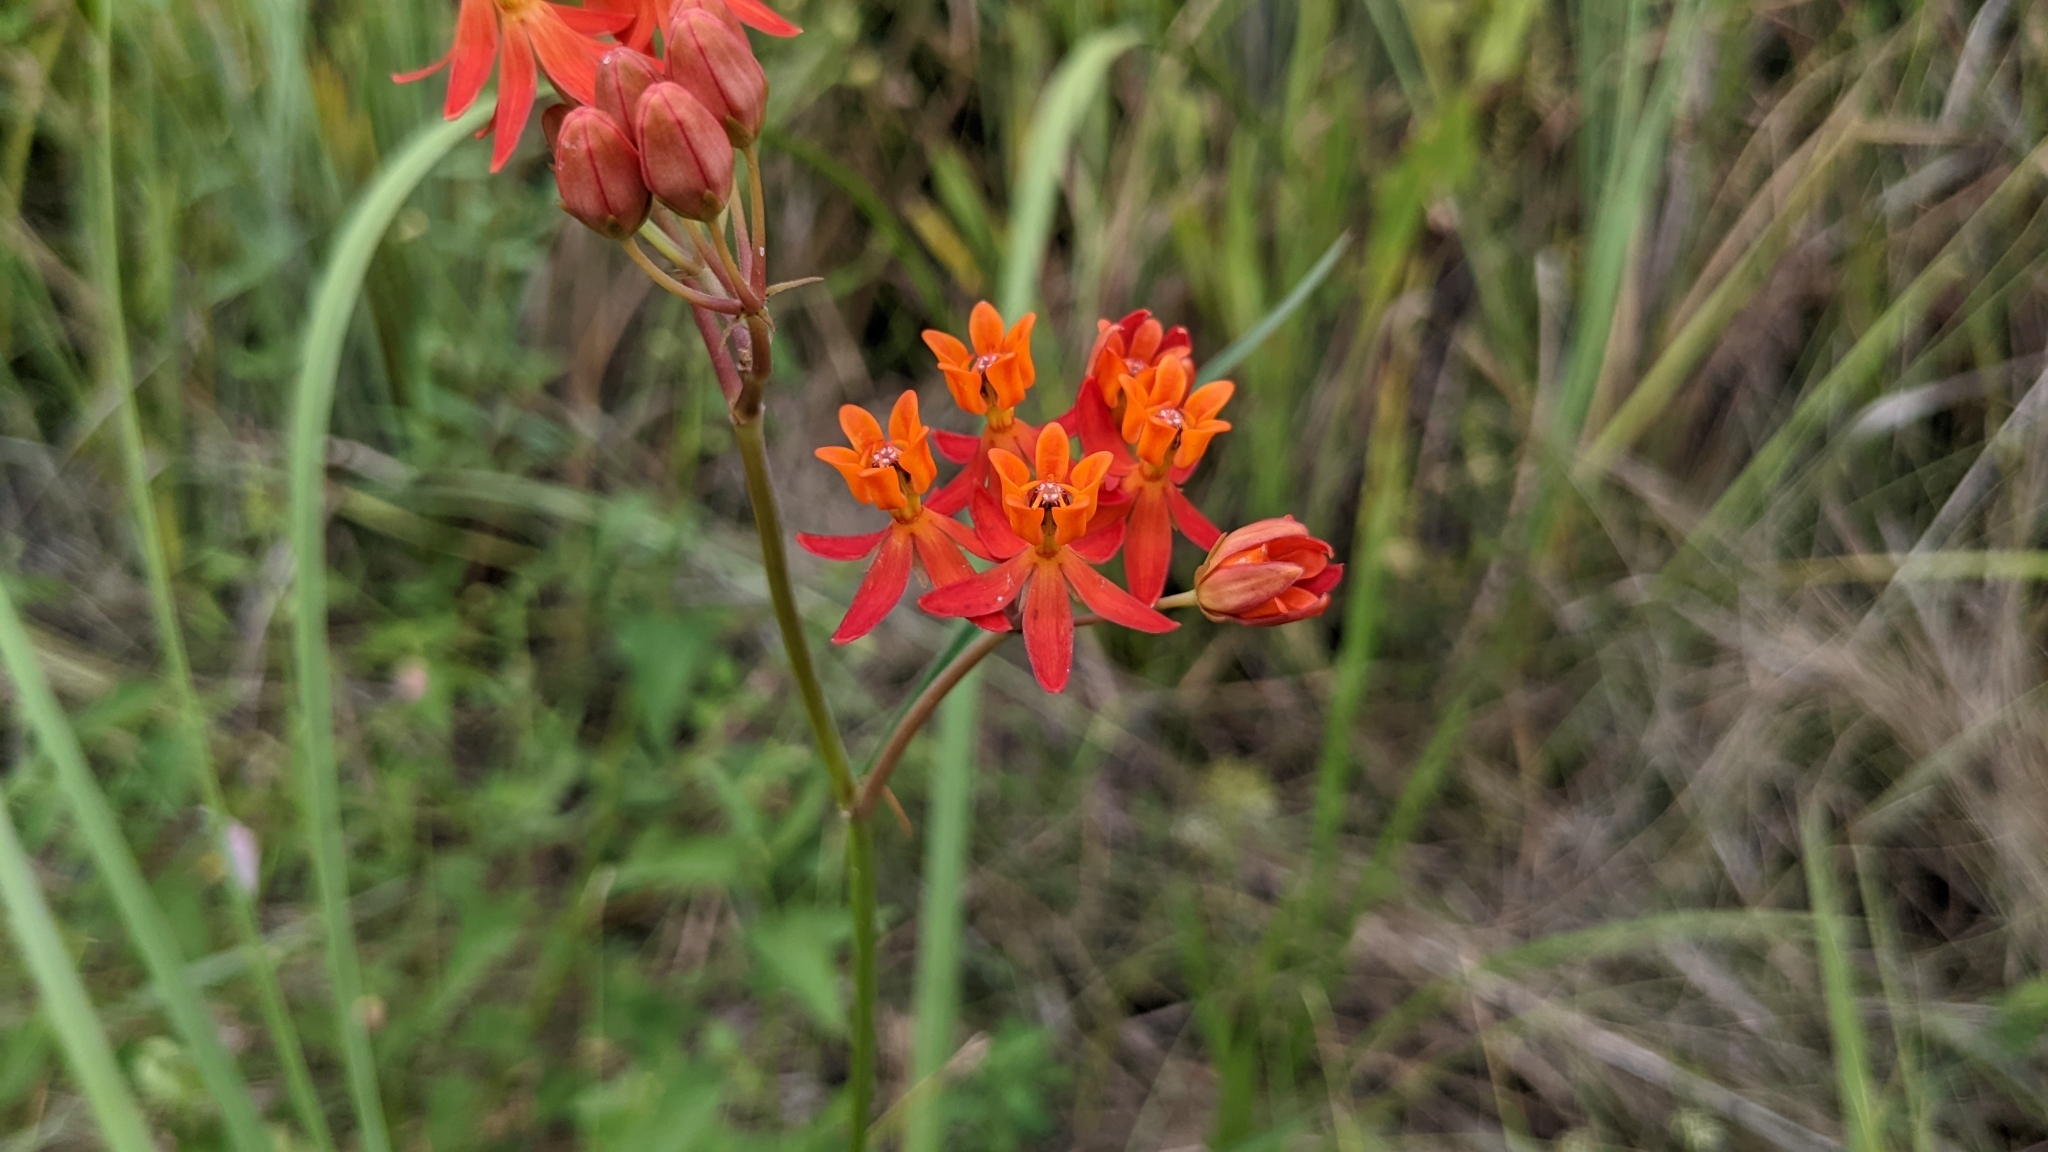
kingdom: Plantae
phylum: Tracheophyta
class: Magnoliopsida
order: Gentianales
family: Apocynaceae
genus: Asclepias
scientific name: Asclepias lanceolata
